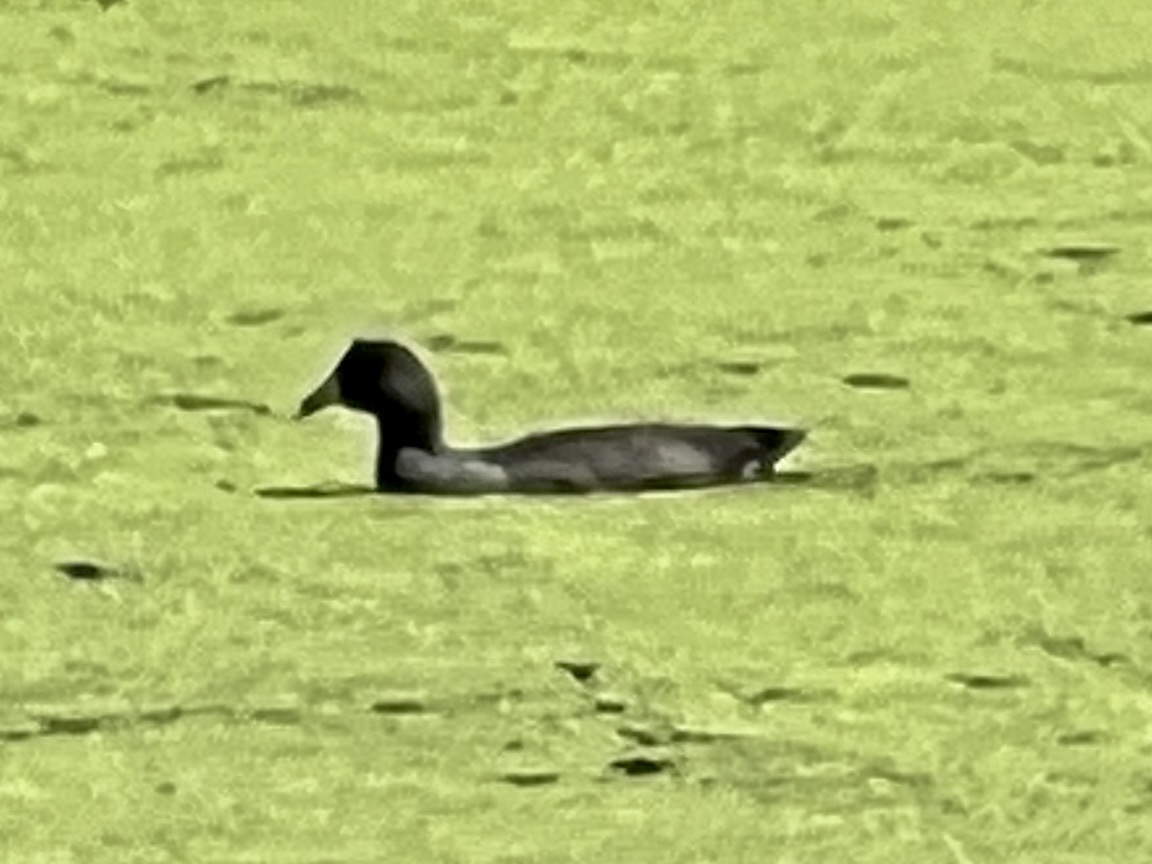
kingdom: Animalia
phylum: Chordata
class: Aves
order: Gruiformes
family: Rallidae
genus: Fulica
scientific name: Fulica americana
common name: American coot
